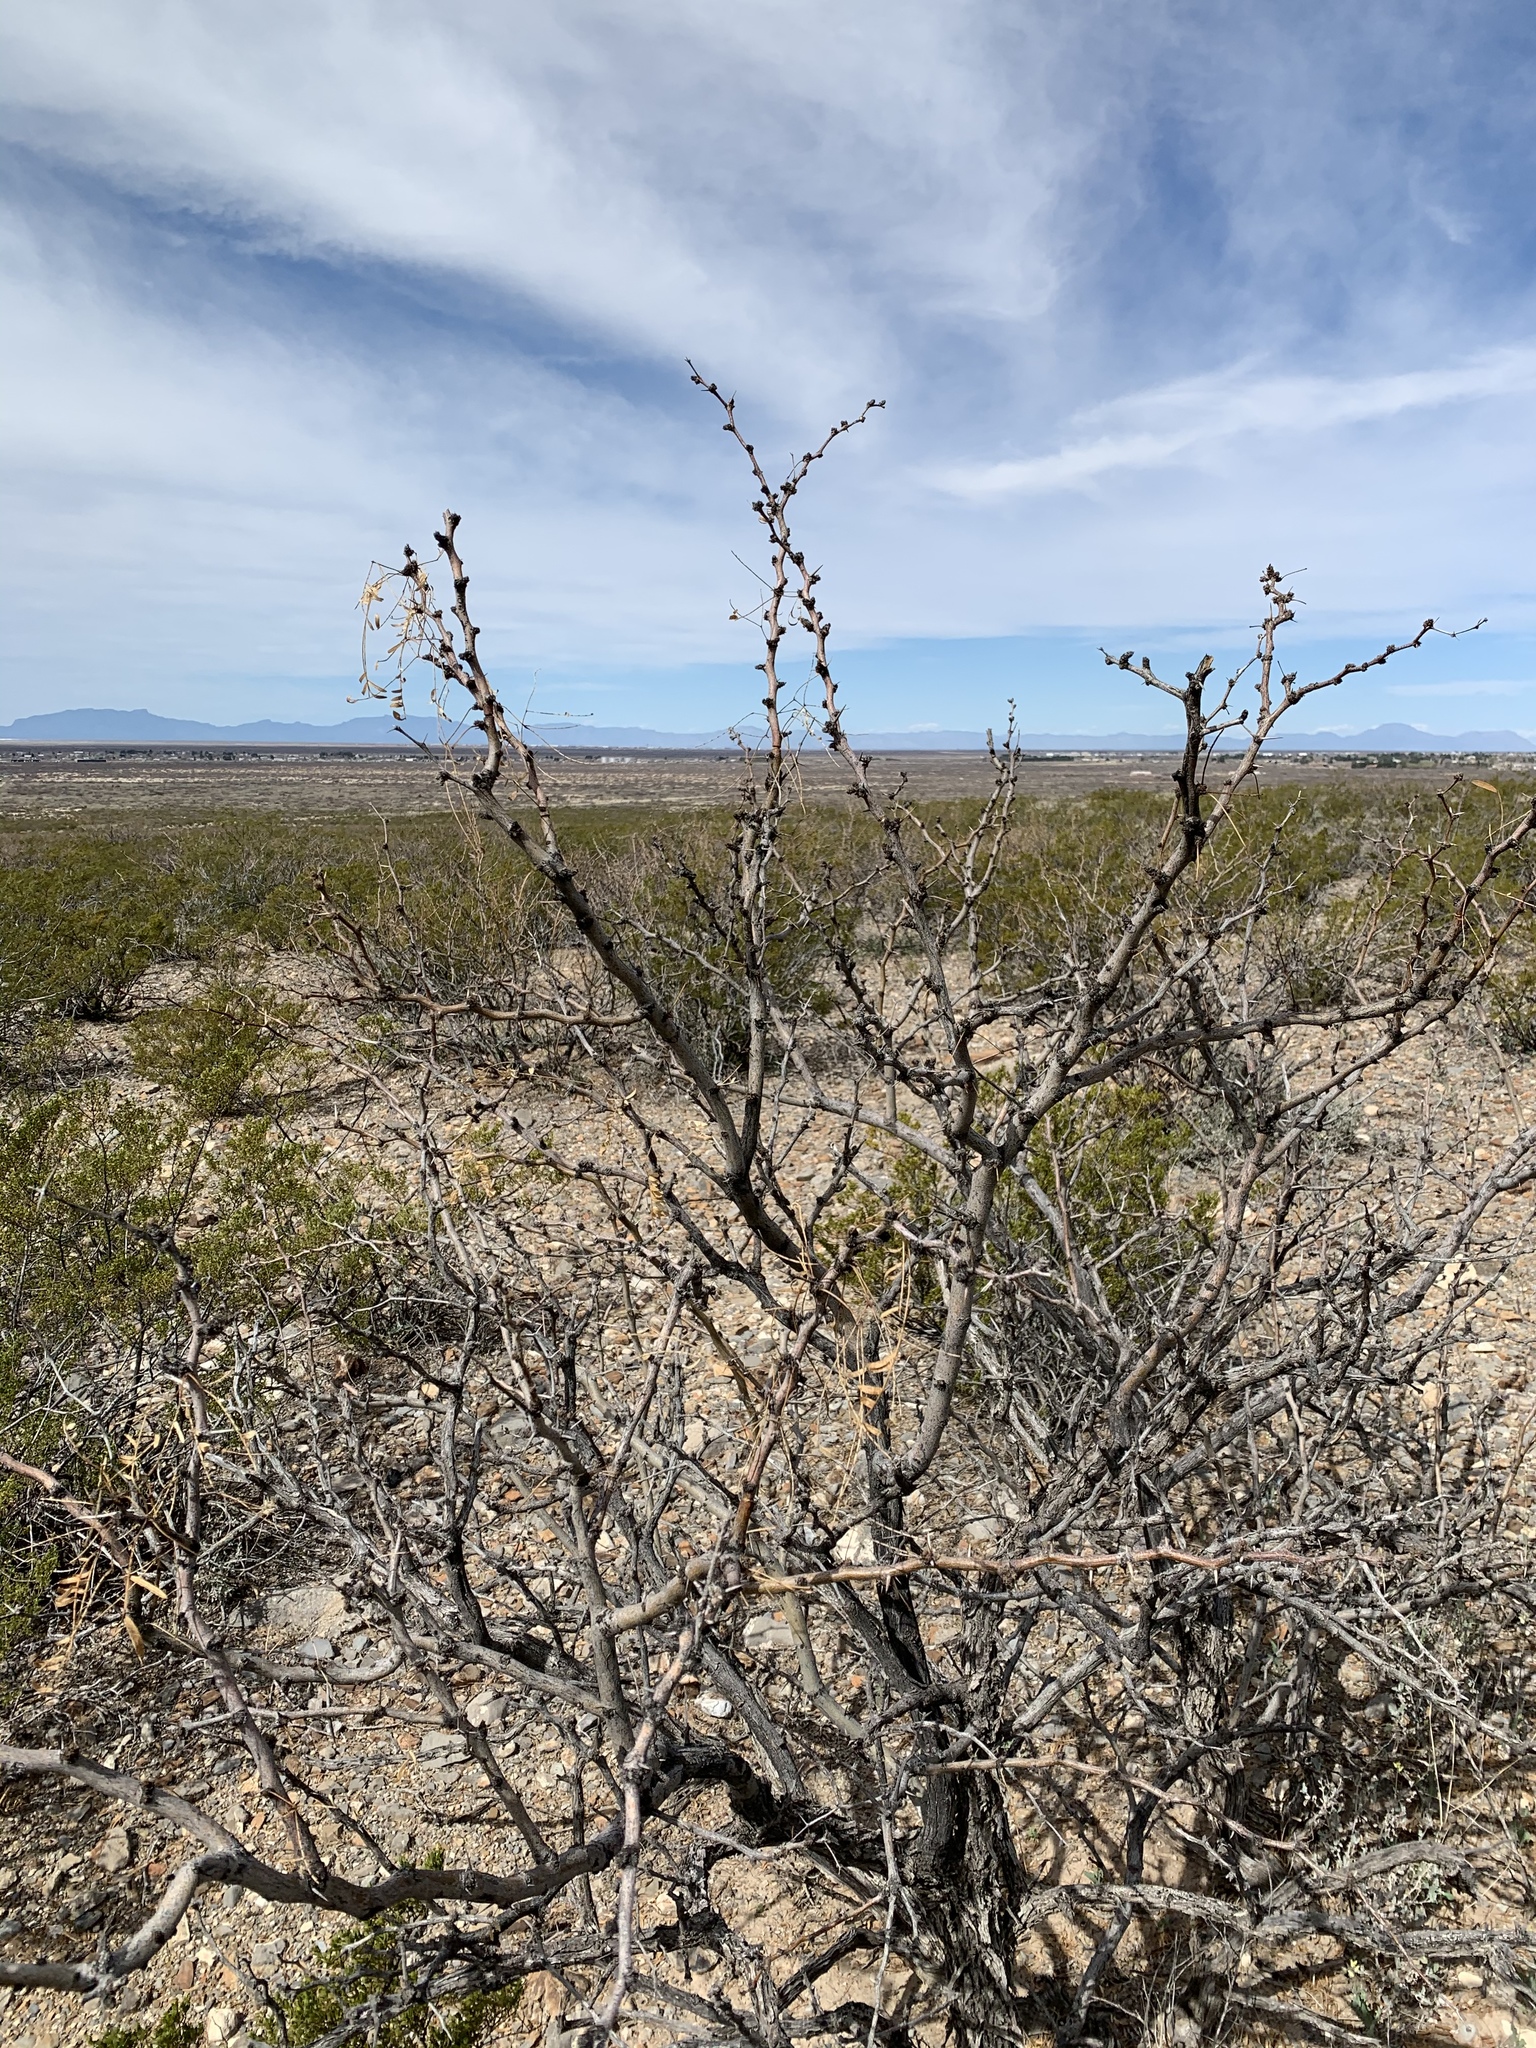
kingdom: Plantae
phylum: Tracheophyta
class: Magnoliopsida
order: Fabales
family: Fabaceae
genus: Prosopis
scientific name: Prosopis glandulosa
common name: Honey mesquite
